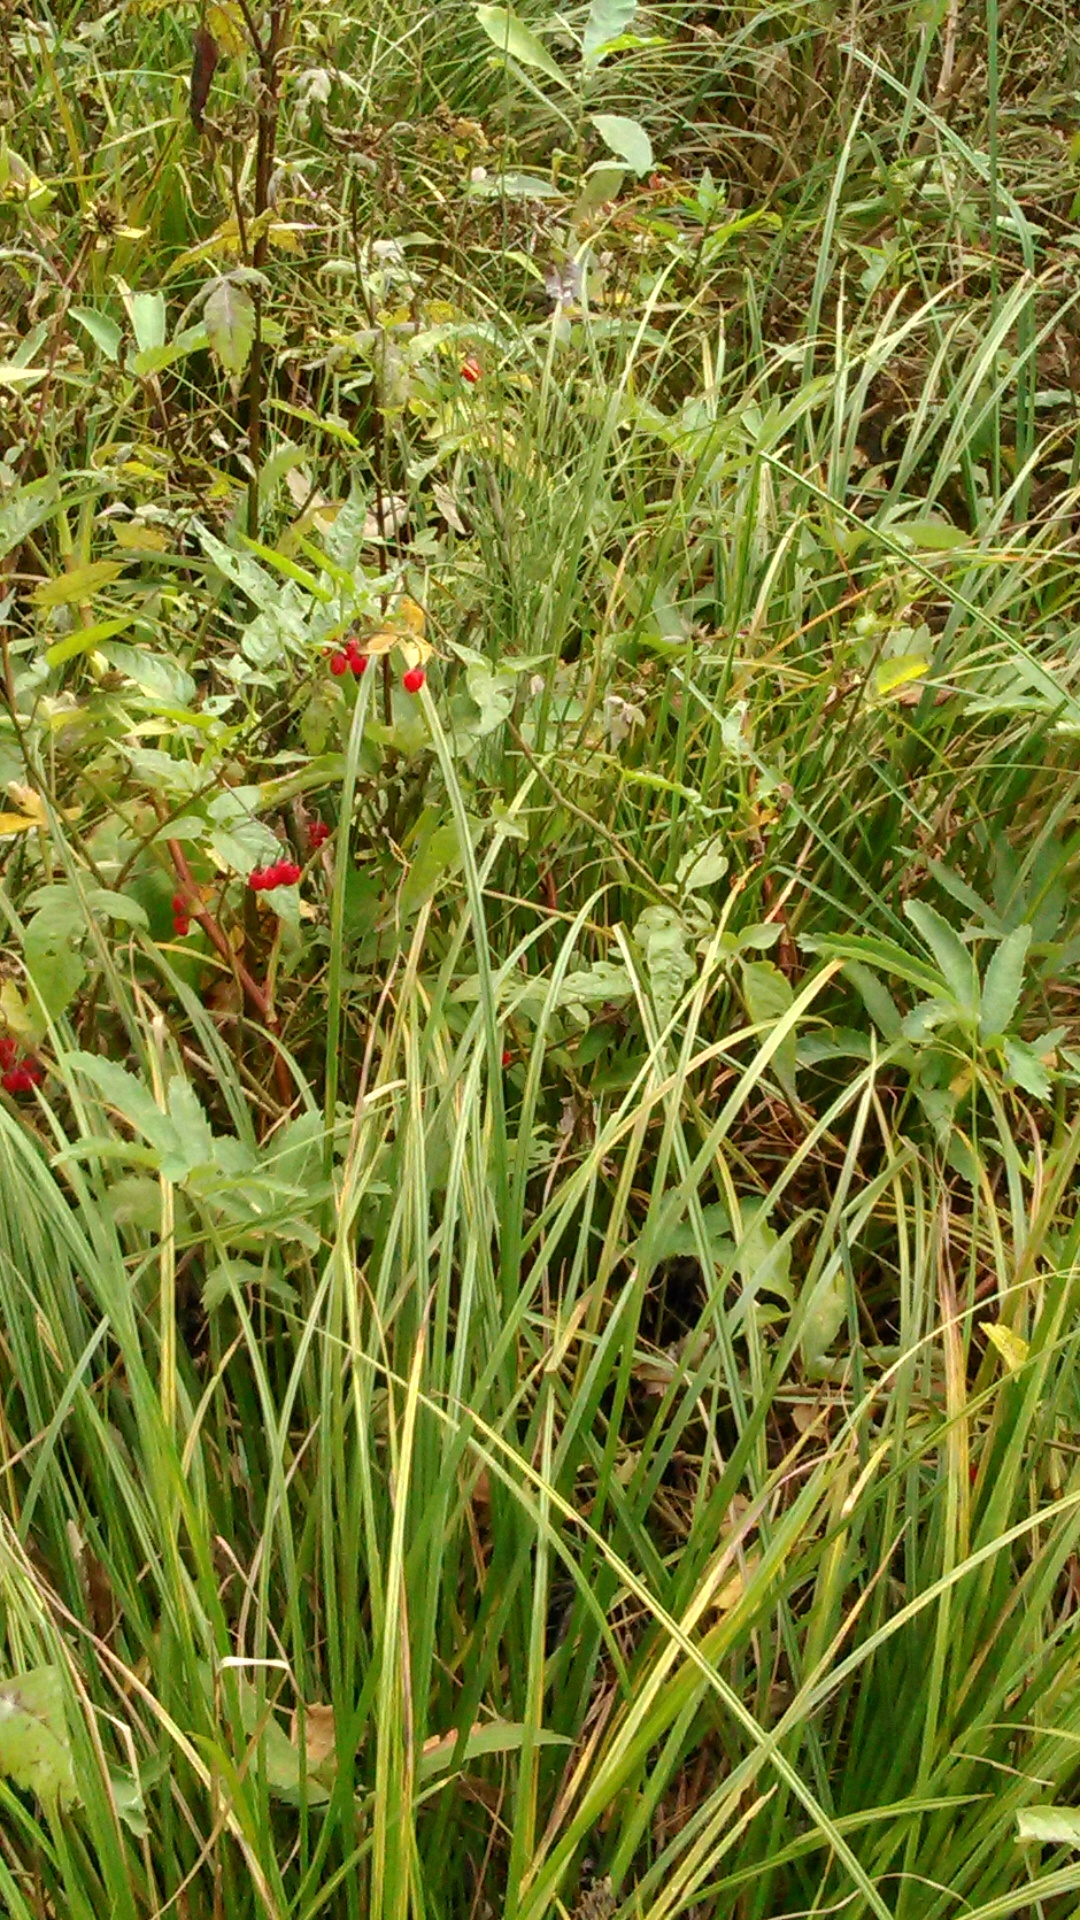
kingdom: Plantae
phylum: Tracheophyta
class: Magnoliopsida
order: Solanales
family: Solanaceae
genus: Solanum
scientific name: Solanum dulcamara
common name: Climbing nightshade
